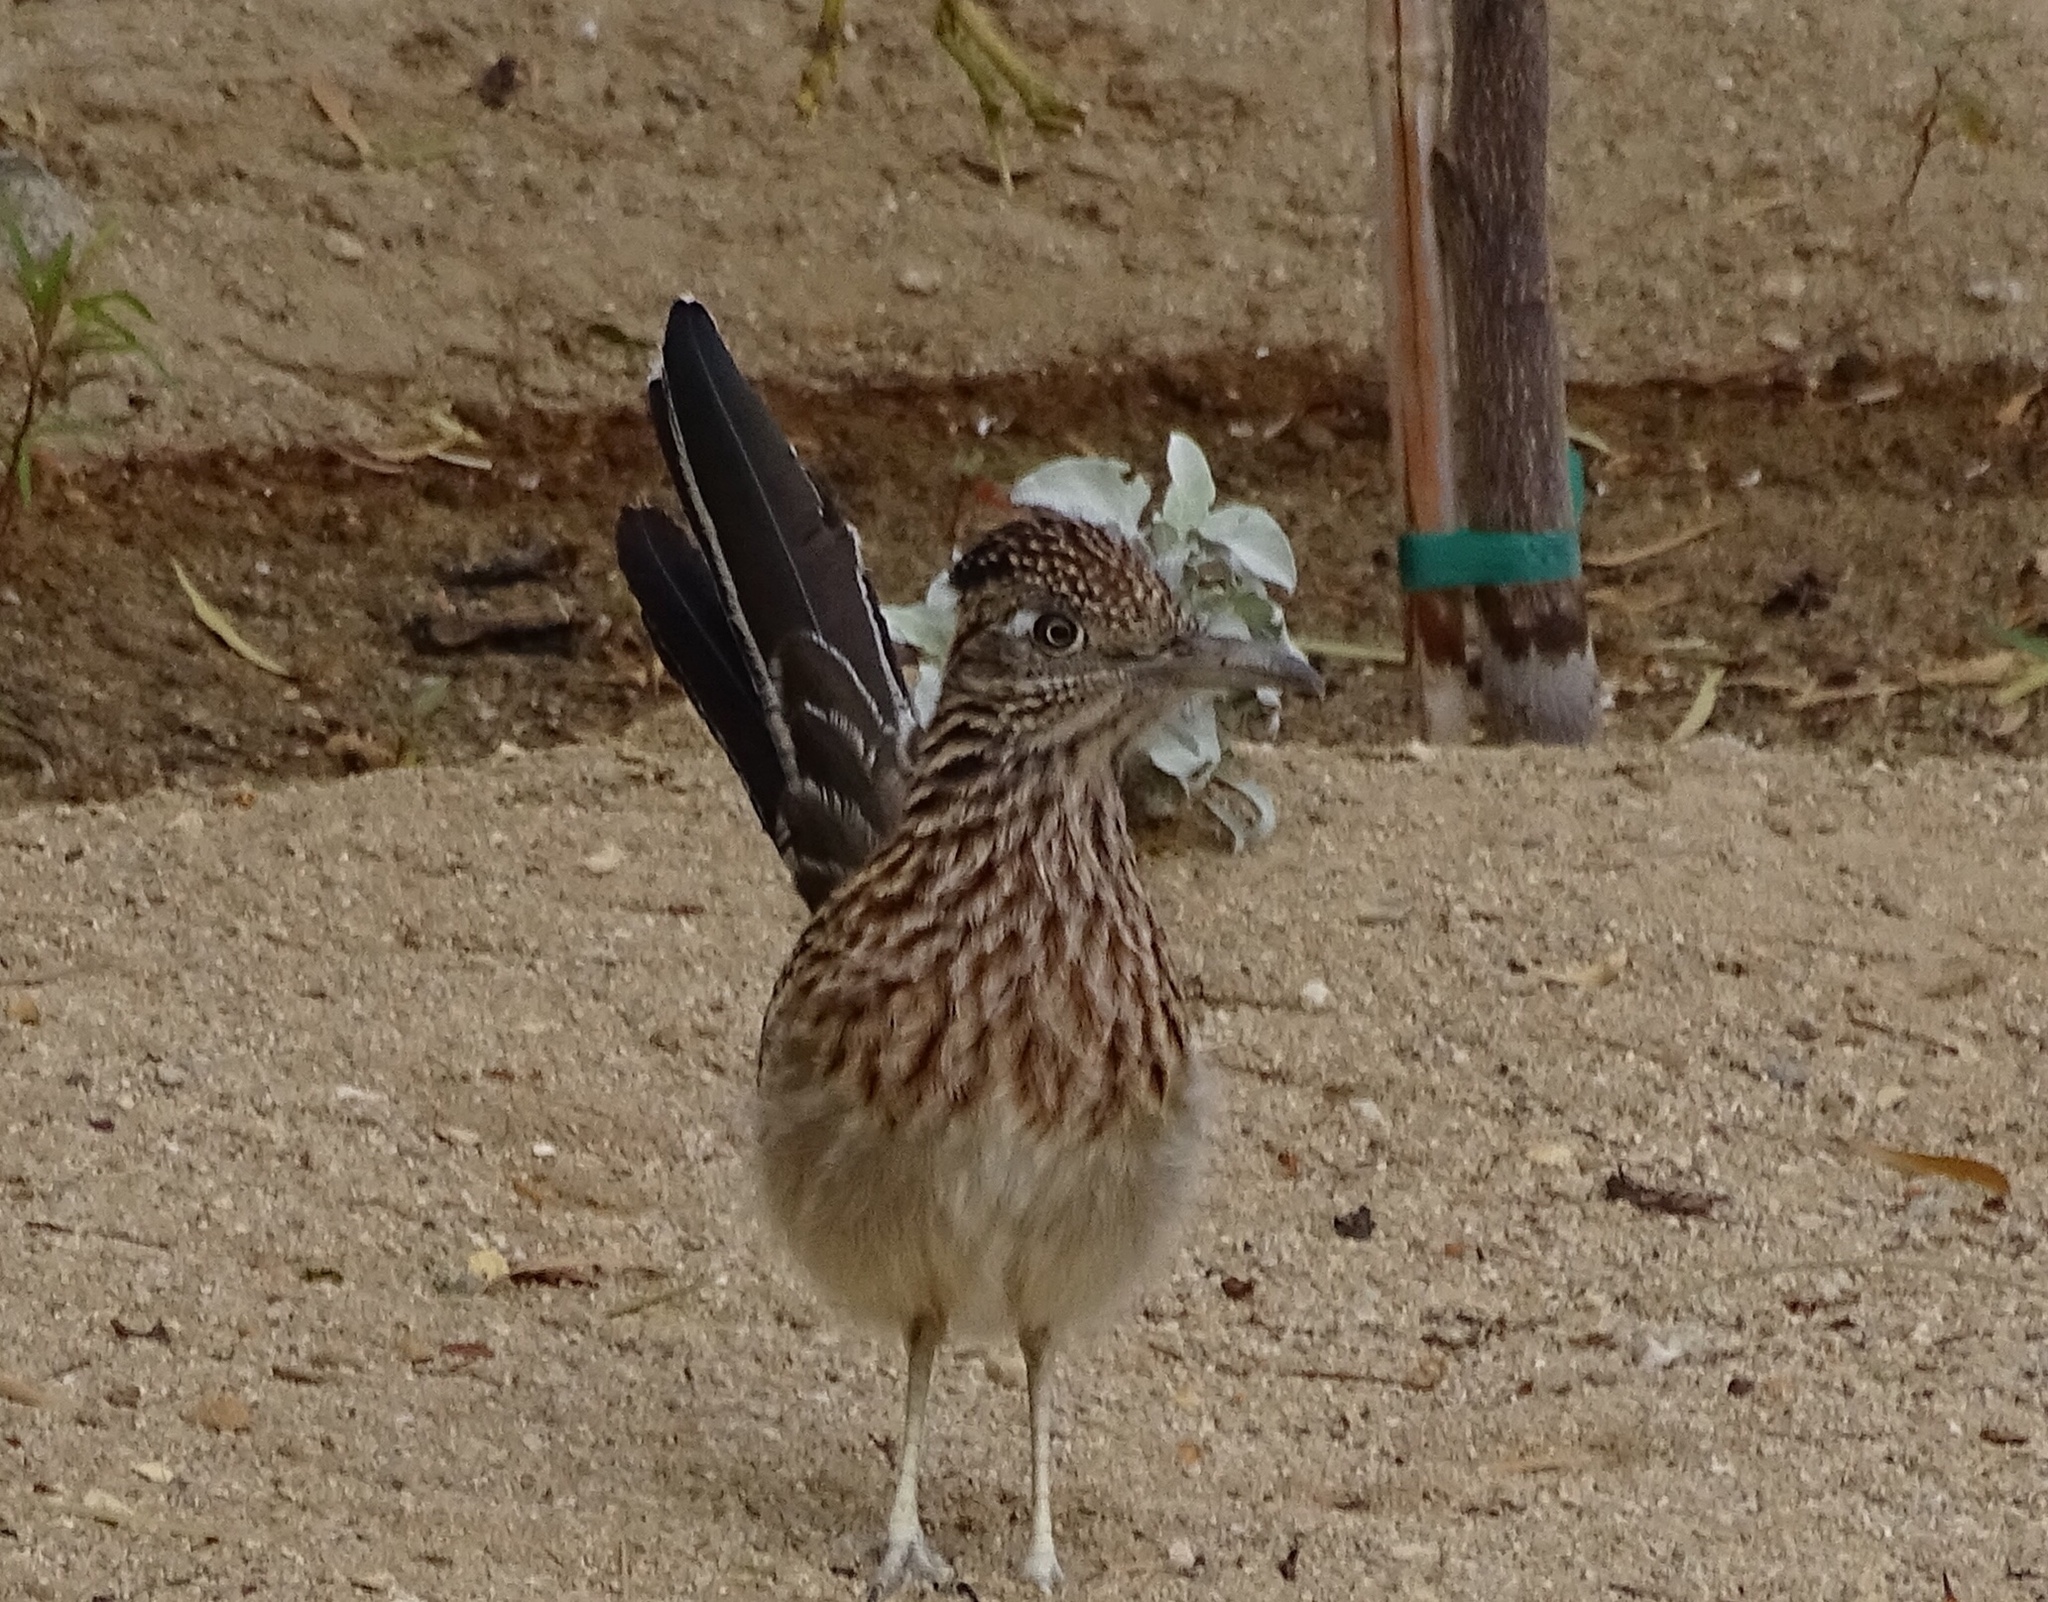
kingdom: Animalia
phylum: Chordata
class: Aves
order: Cuculiformes
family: Cuculidae
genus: Geococcyx
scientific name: Geococcyx californianus
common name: Greater roadrunner
